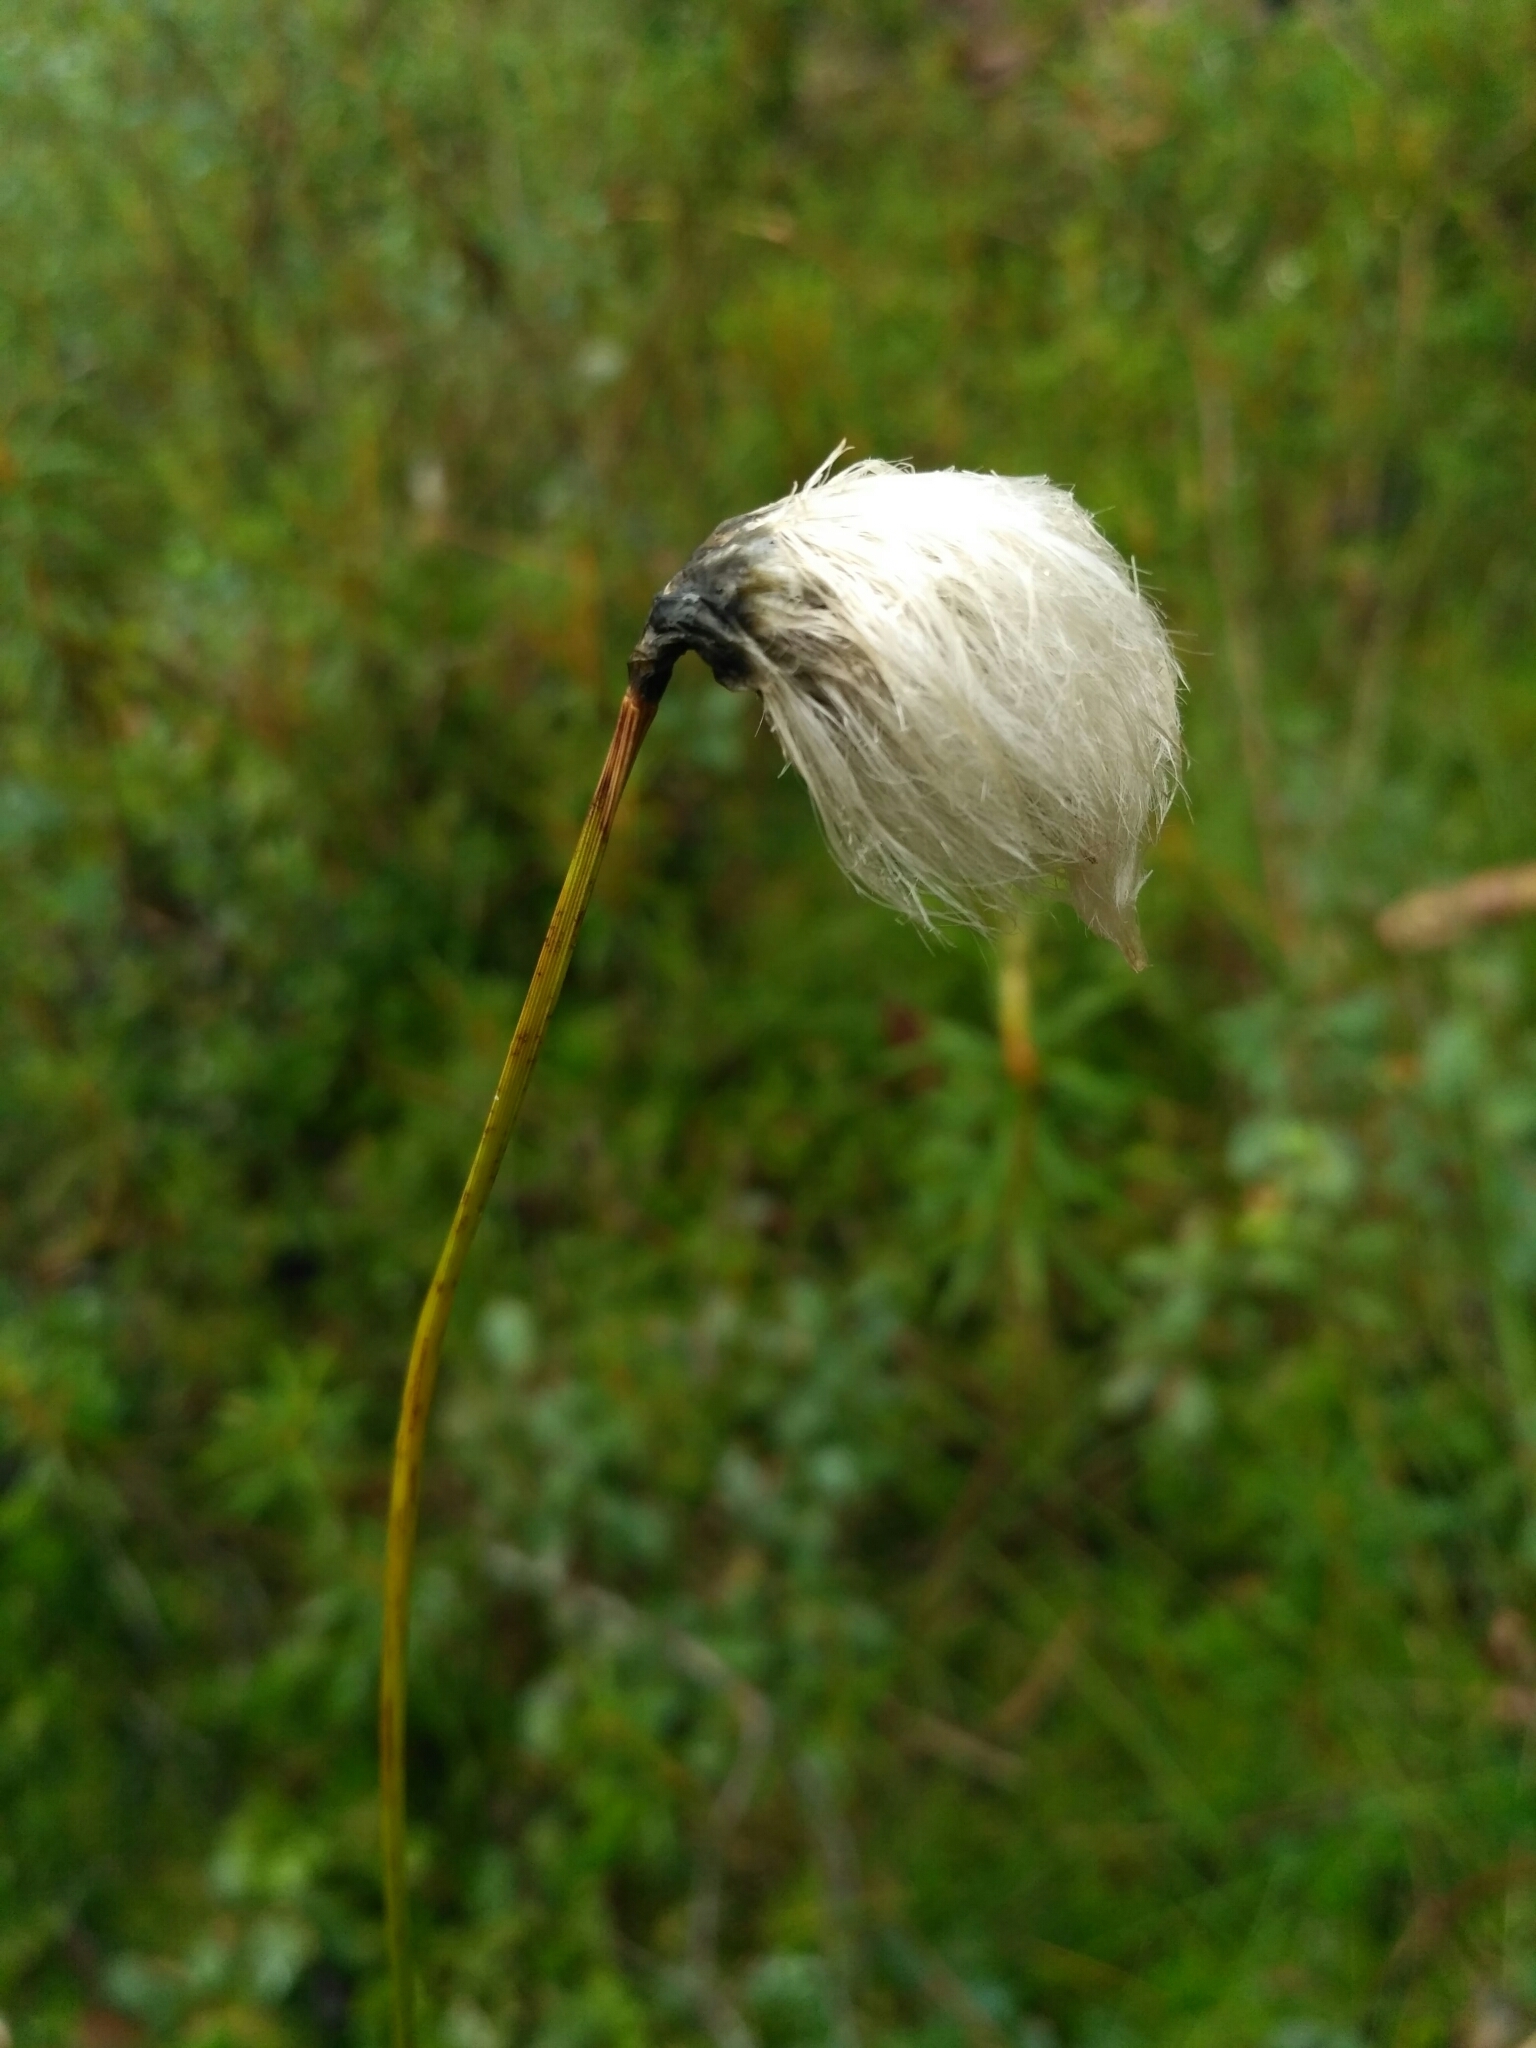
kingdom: Plantae
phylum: Tracheophyta
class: Liliopsida
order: Poales
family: Cyperaceae
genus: Eriophorum
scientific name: Eriophorum vaginatum
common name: Hare's-tail cottongrass
